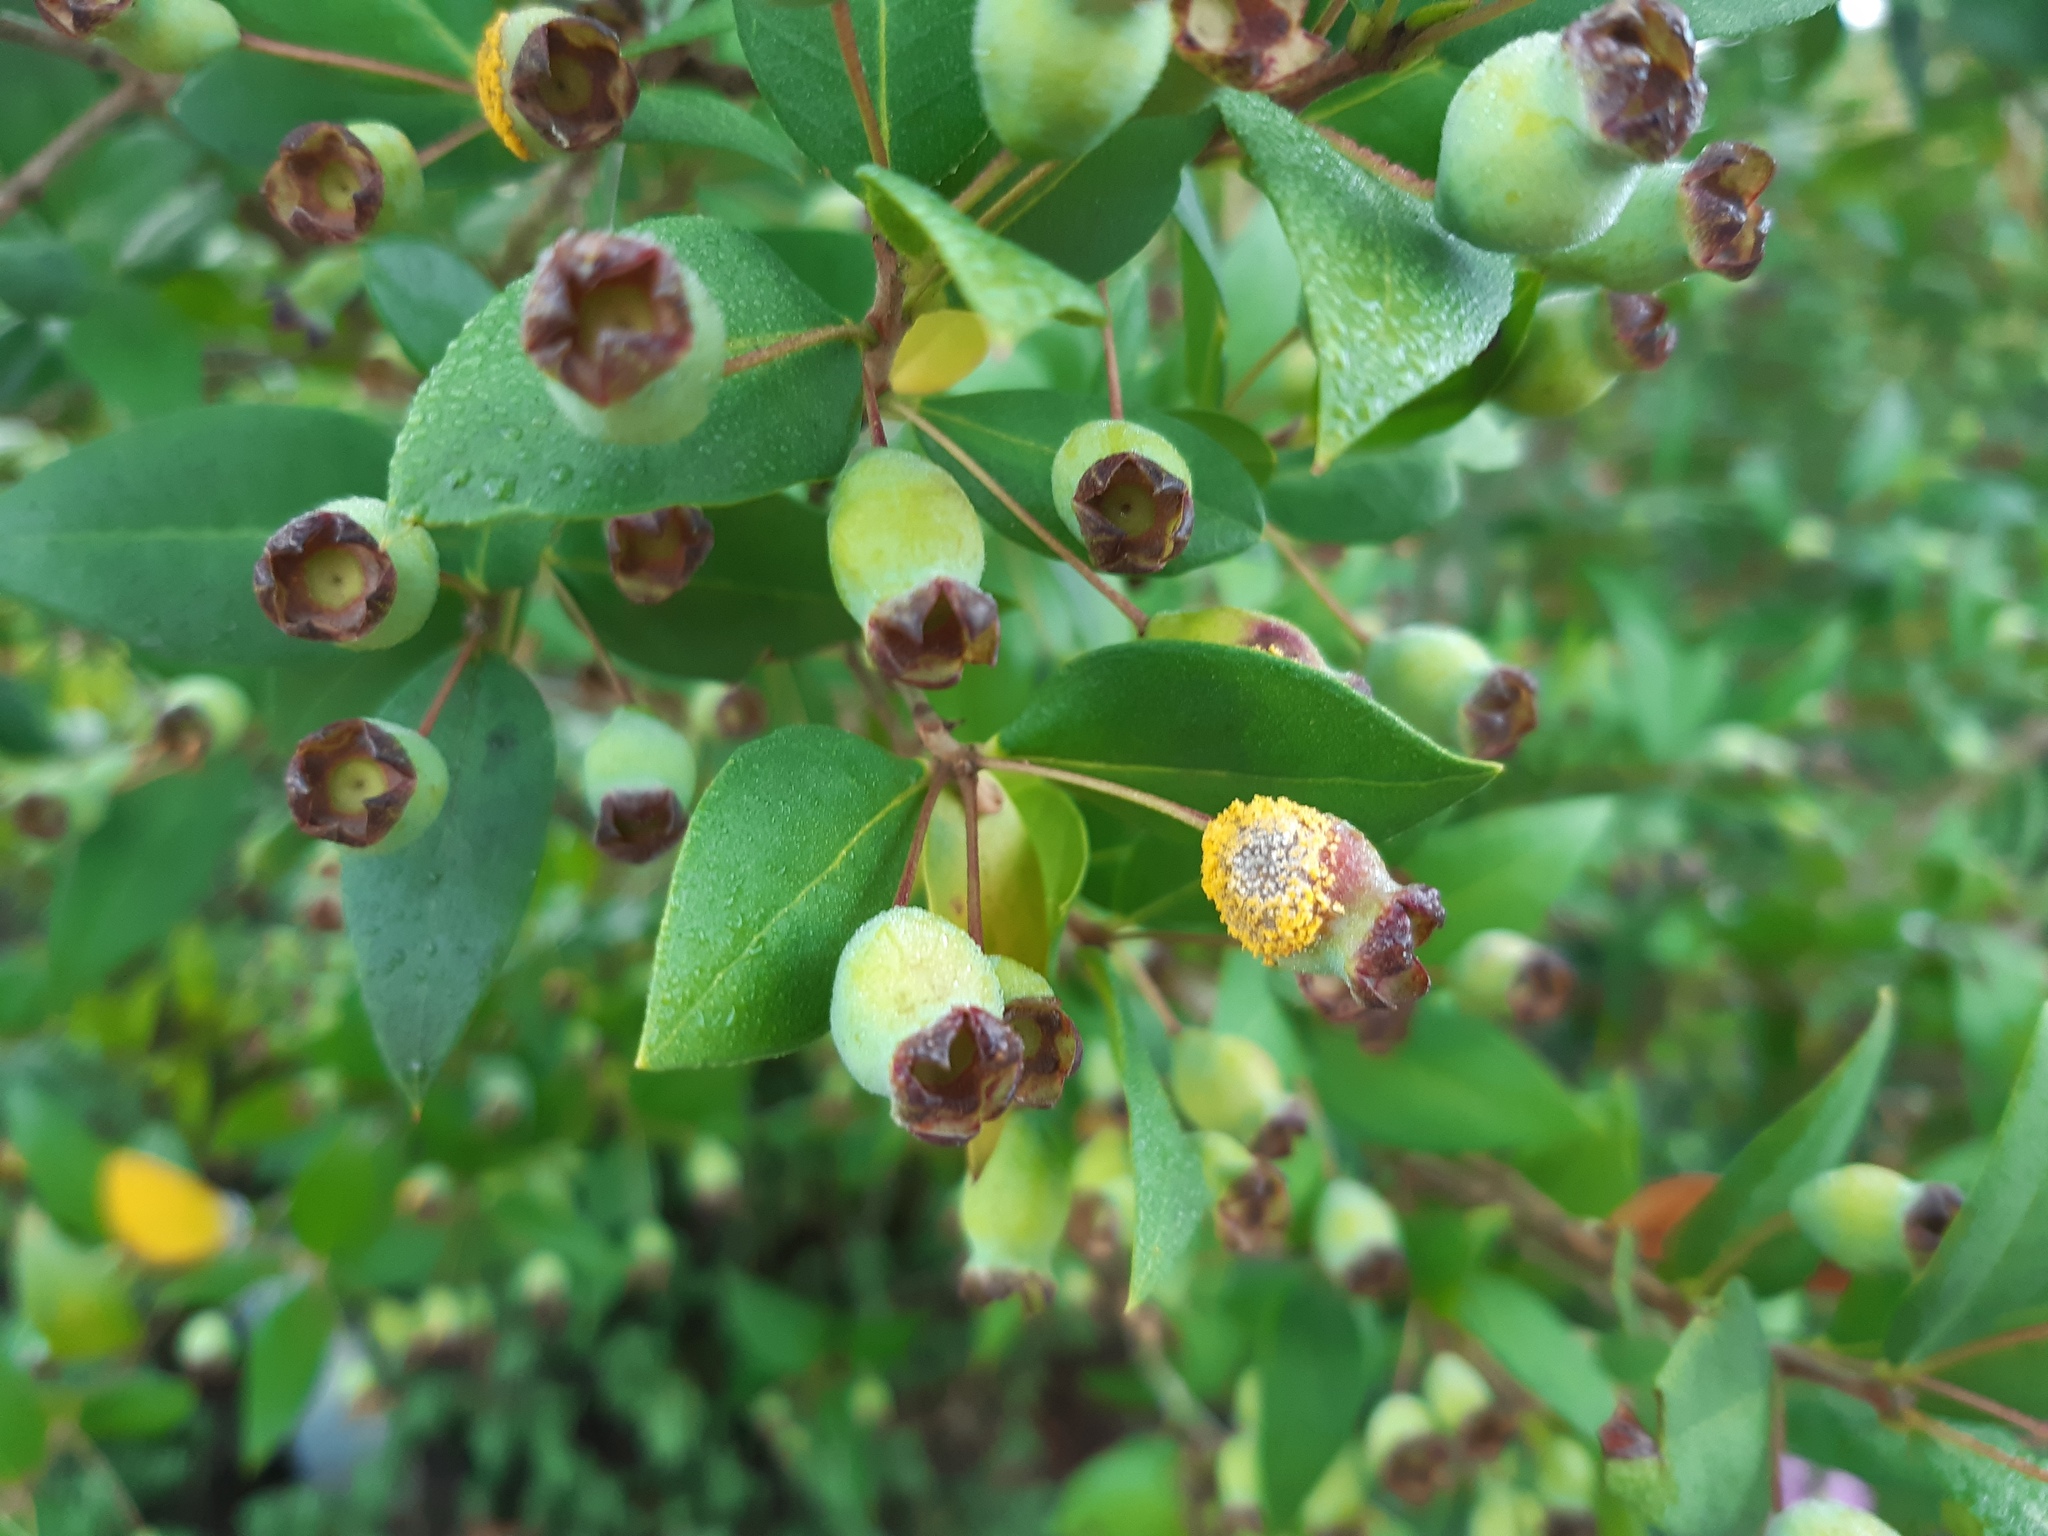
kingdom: Fungi
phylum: Basidiomycota
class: Pucciniomycetes
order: Pucciniales
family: Sphaerophragmiaceae
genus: Austropuccinia
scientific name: Austropuccinia psidii
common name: Myrtle rust
